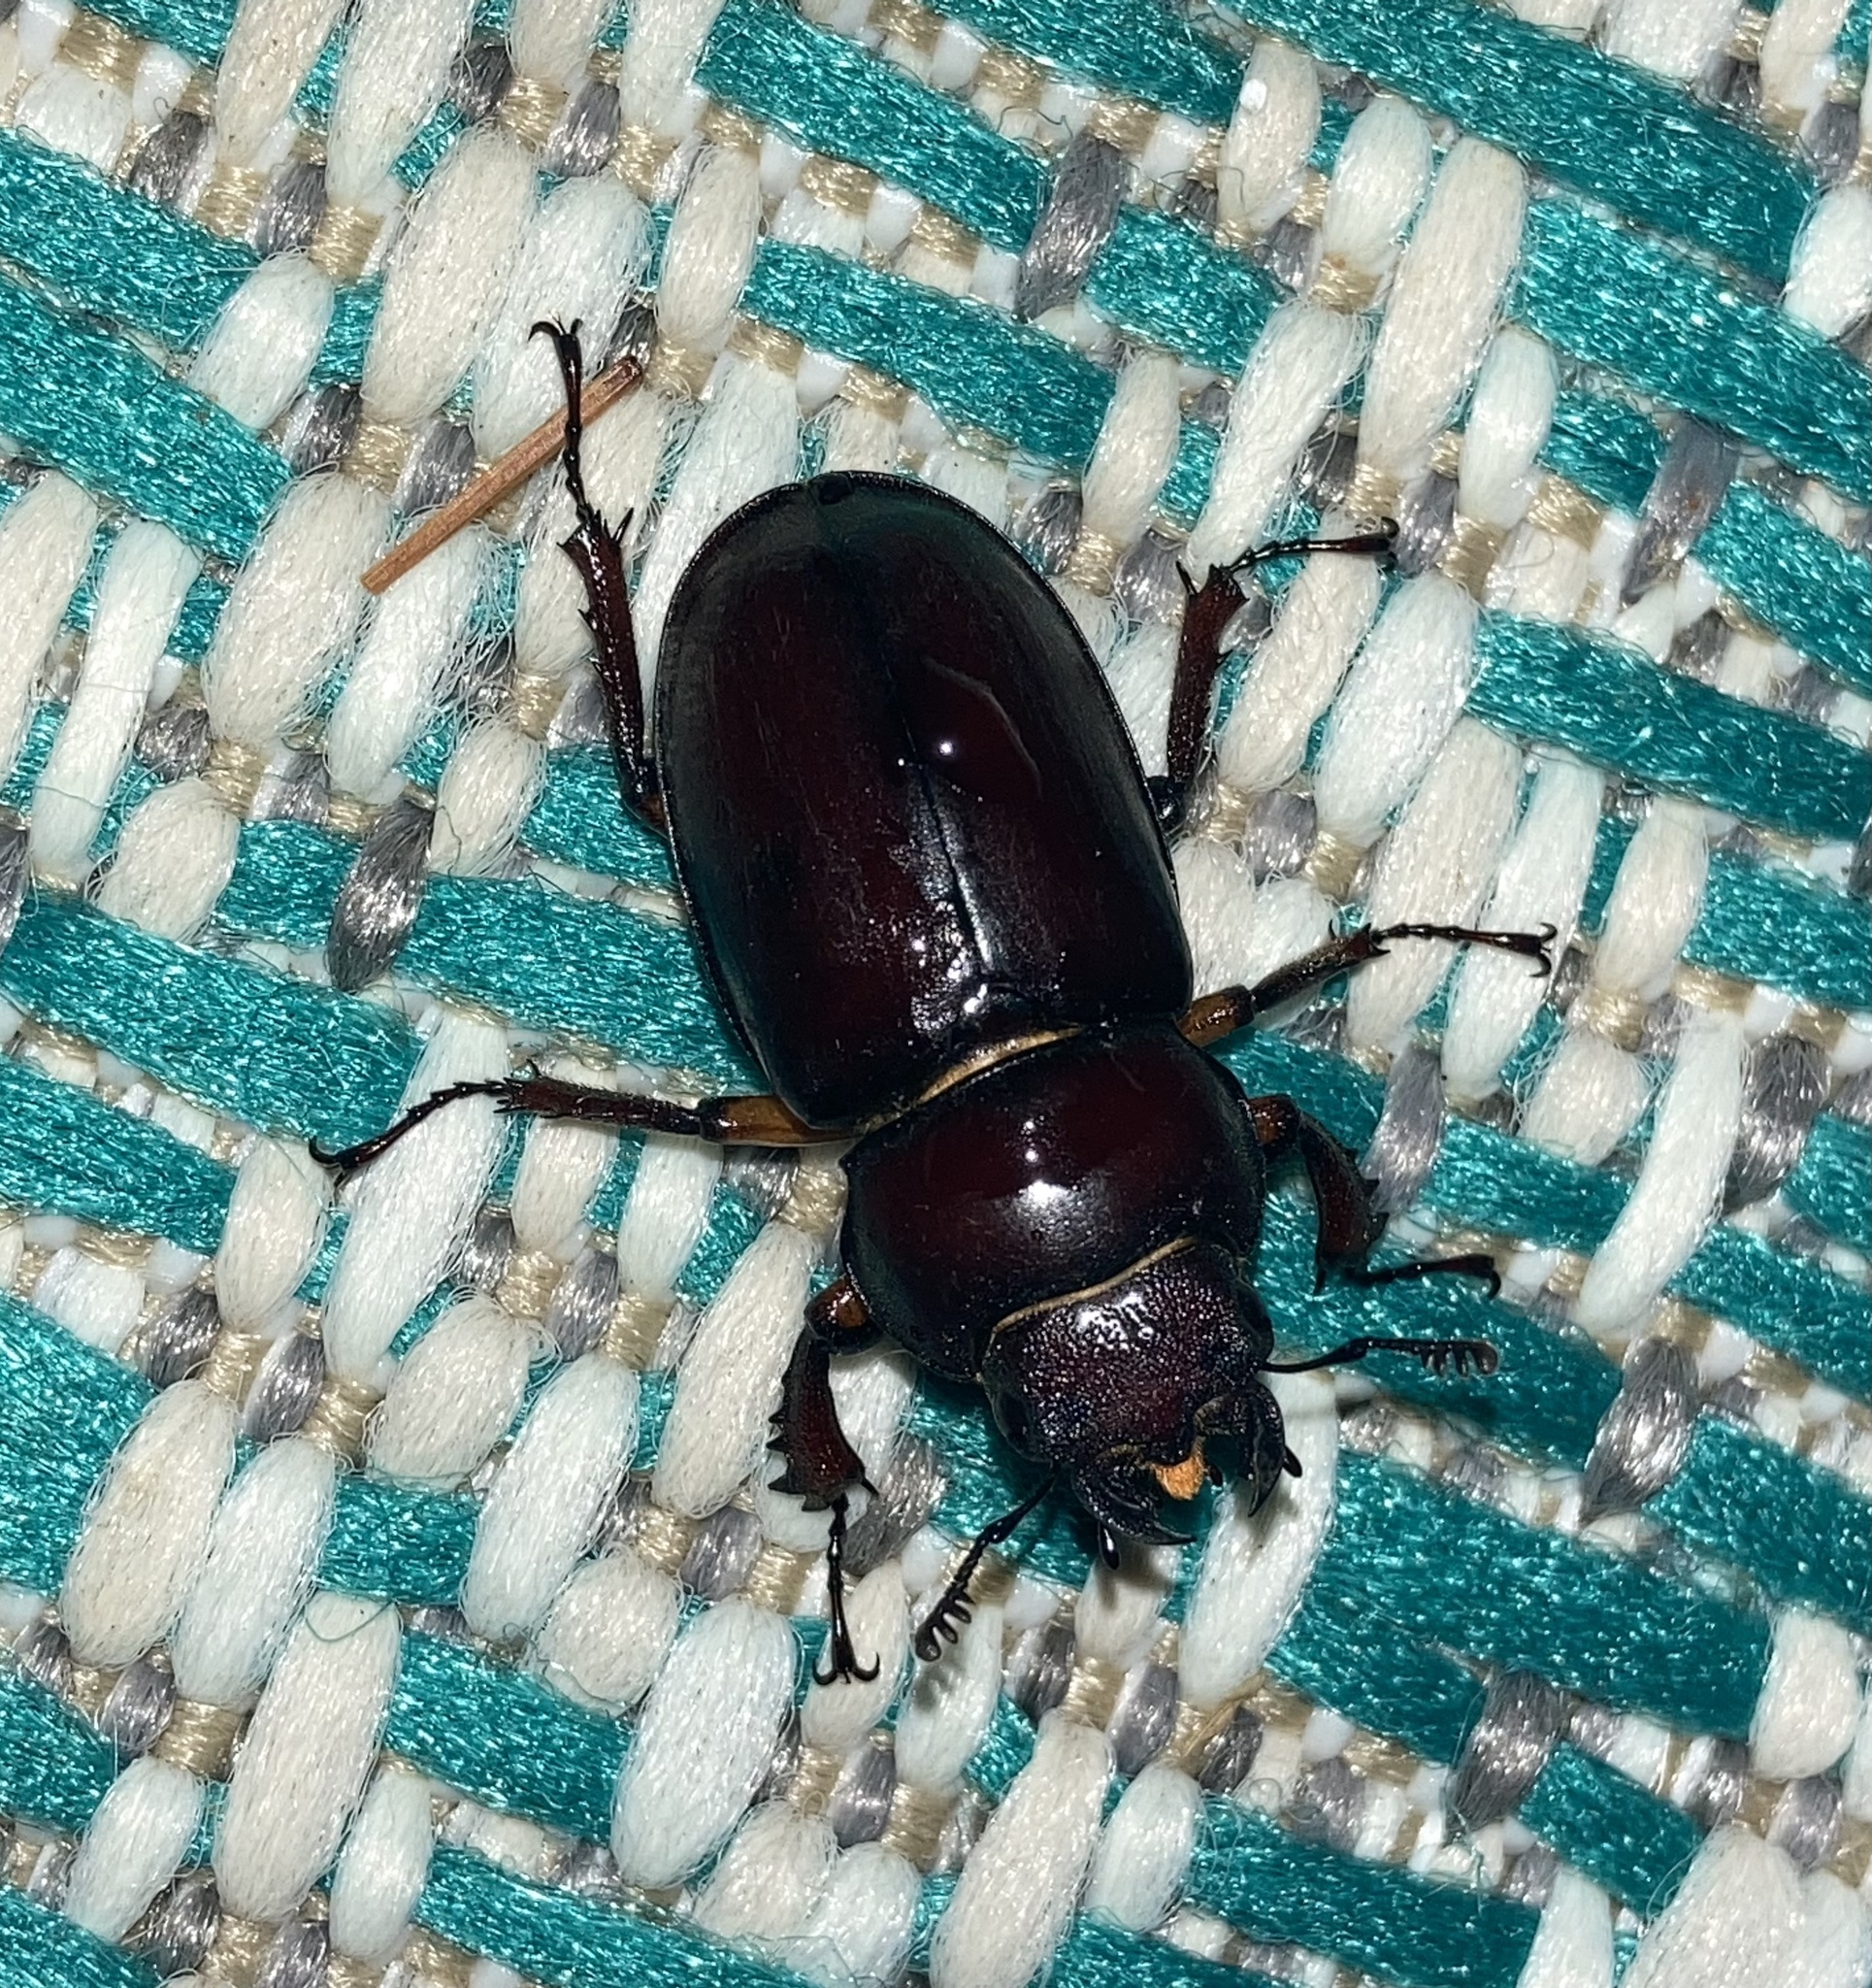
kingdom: Animalia
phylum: Arthropoda
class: Insecta
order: Coleoptera
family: Lucanidae
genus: Lucanus
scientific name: Lucanus capreolus
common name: Stag beetle
